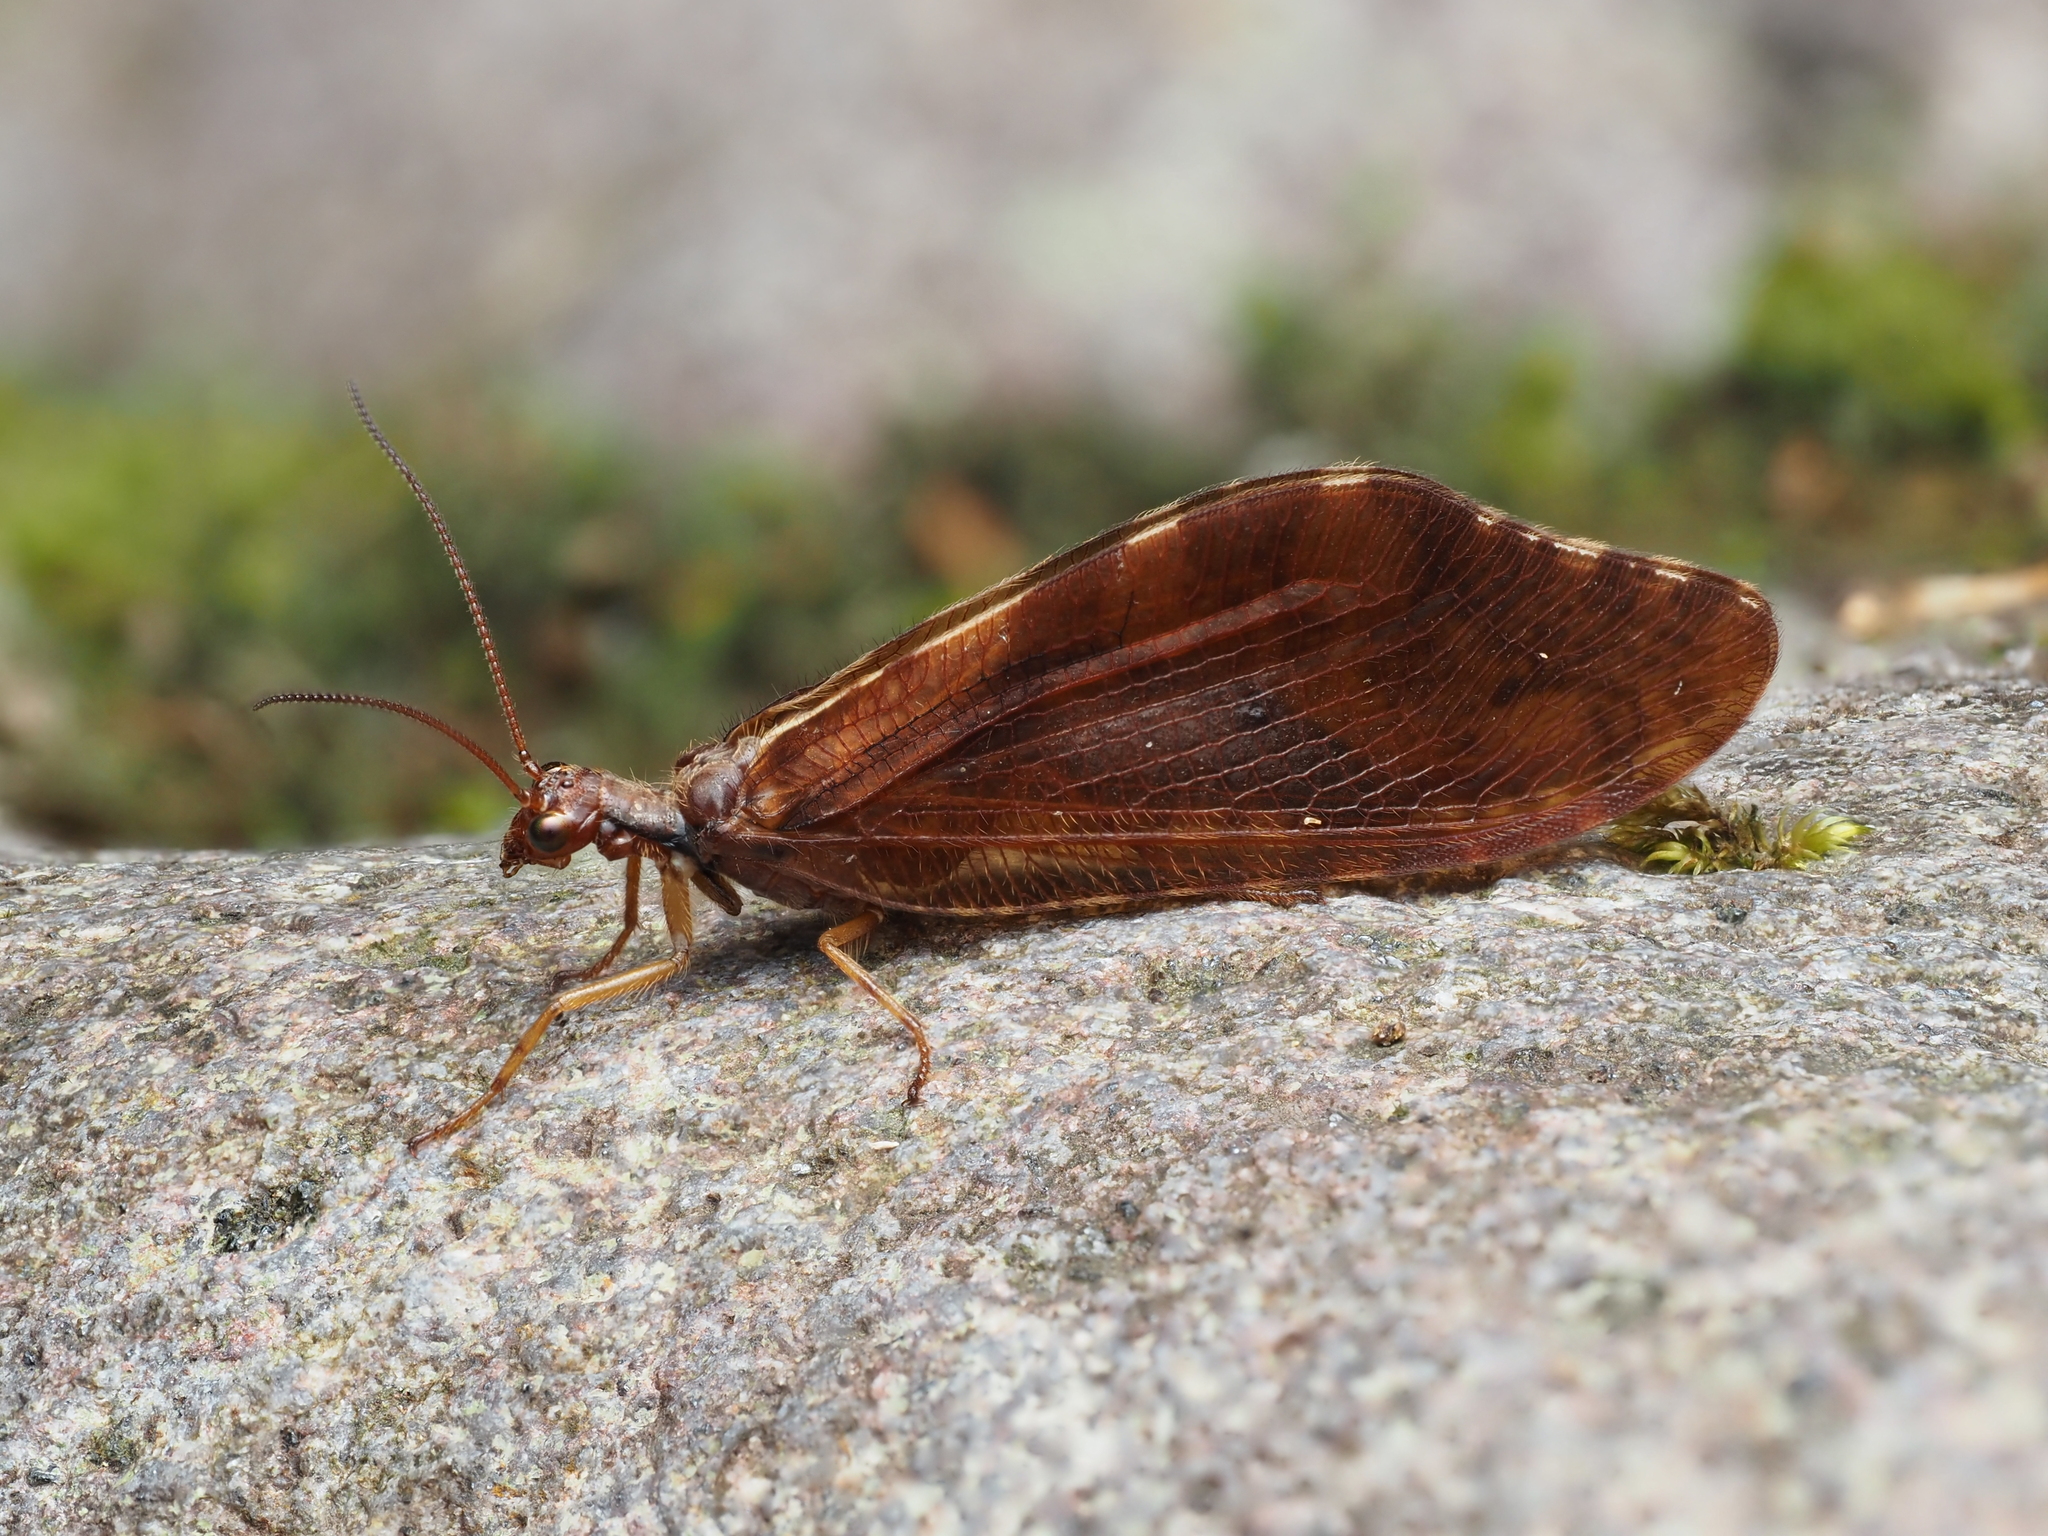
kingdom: Animalia
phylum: Arthropoda
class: Insecta
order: Neuroptera
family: Osmylidae
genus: Euosmylus
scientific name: Euosmylus stellae
